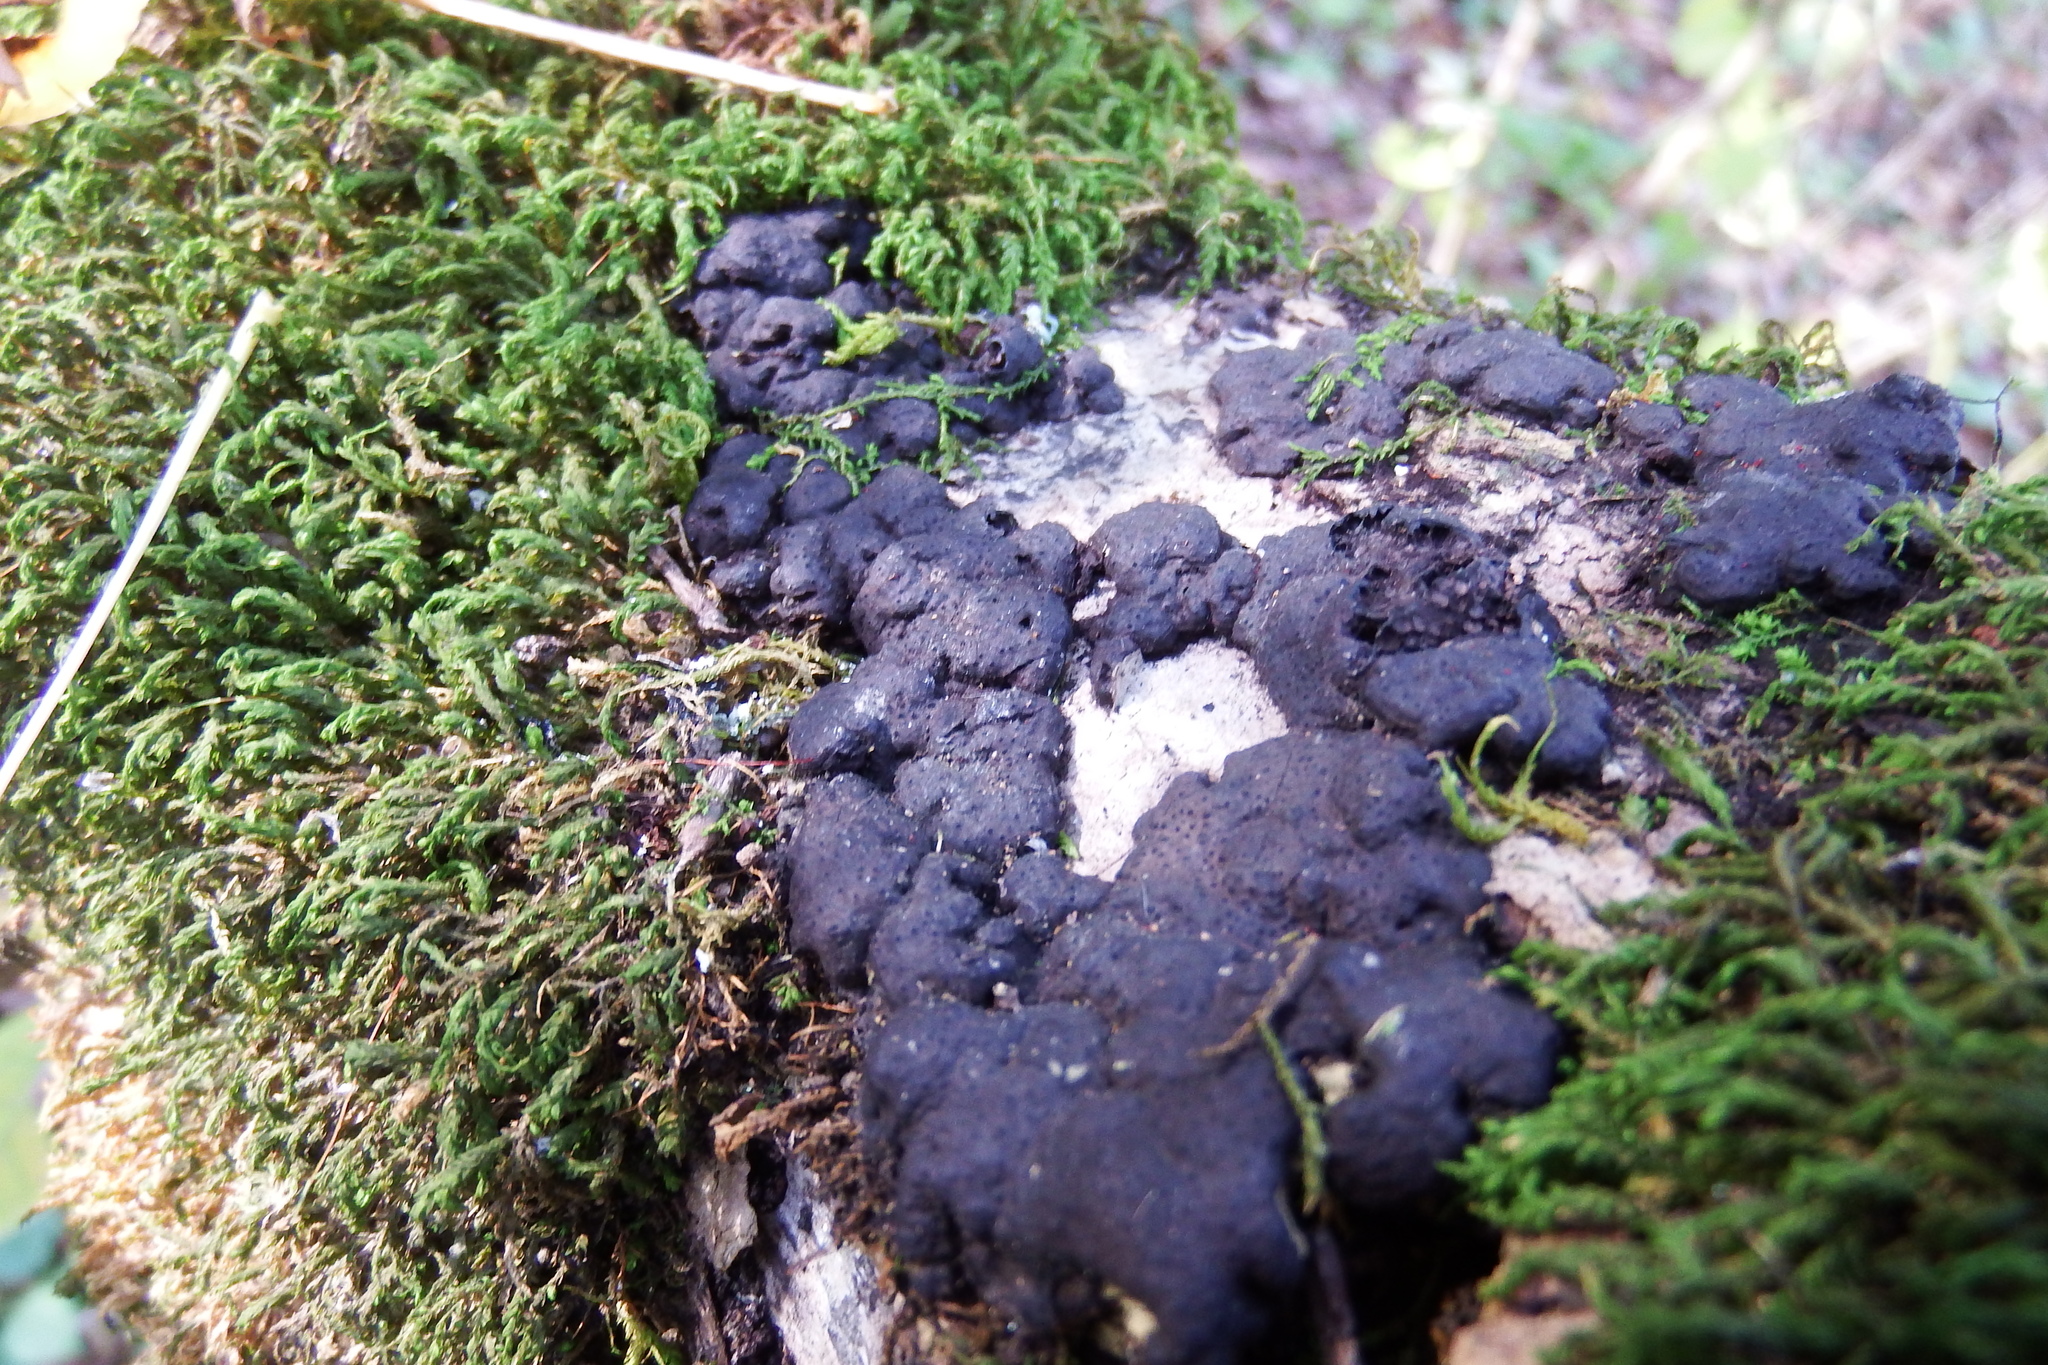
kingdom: Fungi
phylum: Ascomycota
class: Sordariomycetes
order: Xylariales
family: Xylariaceae
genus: Kretzschmaria
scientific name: Kretzschmaria deusta
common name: Brittle cinder
